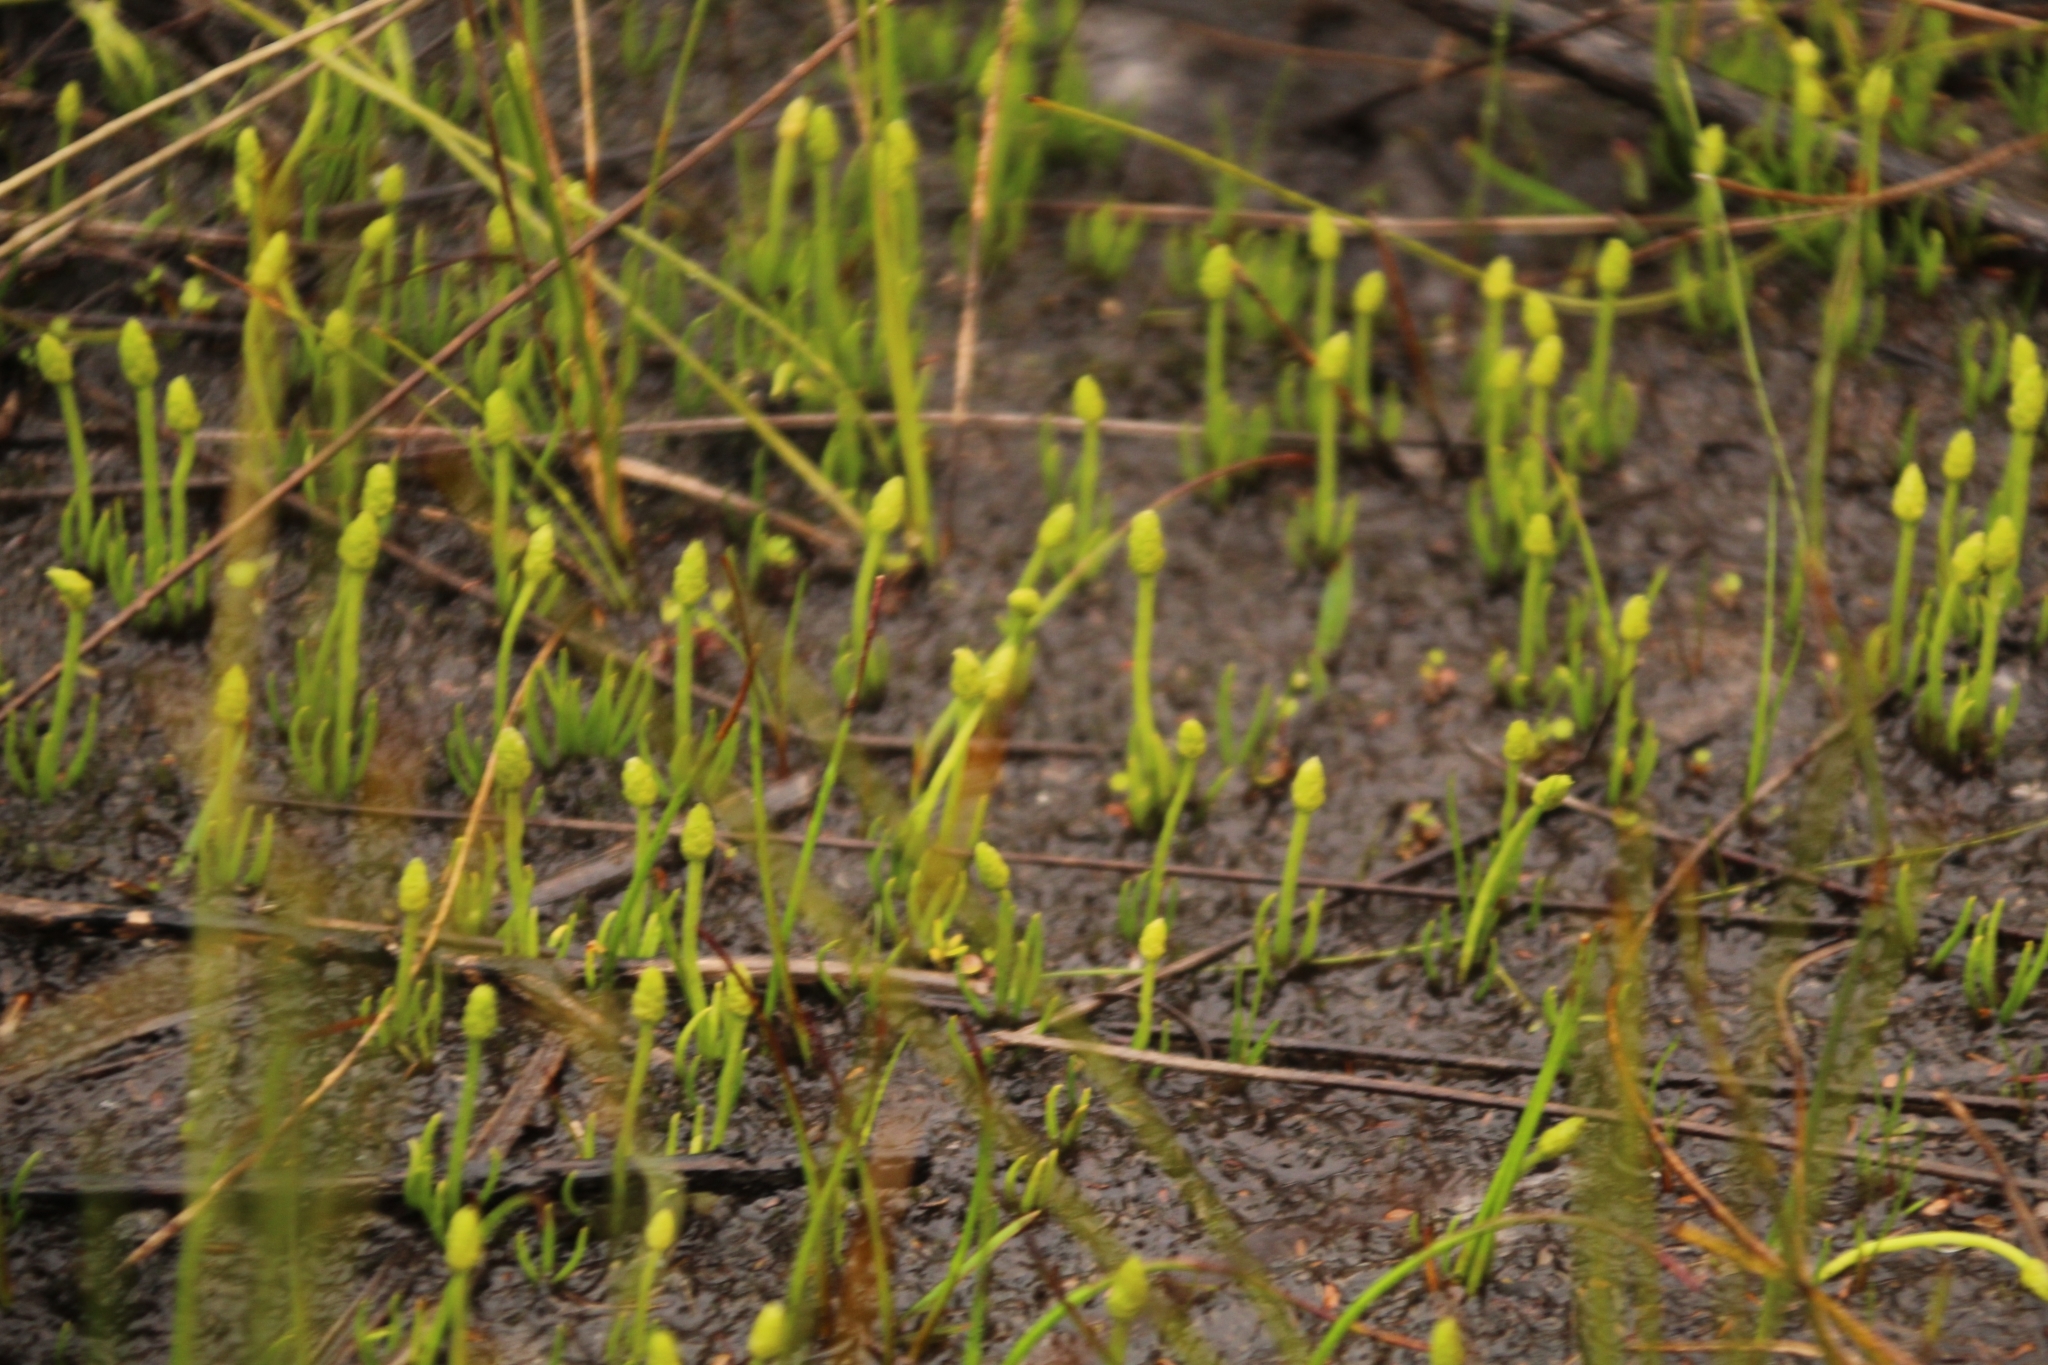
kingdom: Plantae
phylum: Tracheophyta
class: Lycopodiopsida
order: Lycopodiales
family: Lycopodiaceae
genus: Phylloglossum
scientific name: Phylloglossum drummondii
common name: Pigmy-club-moss
